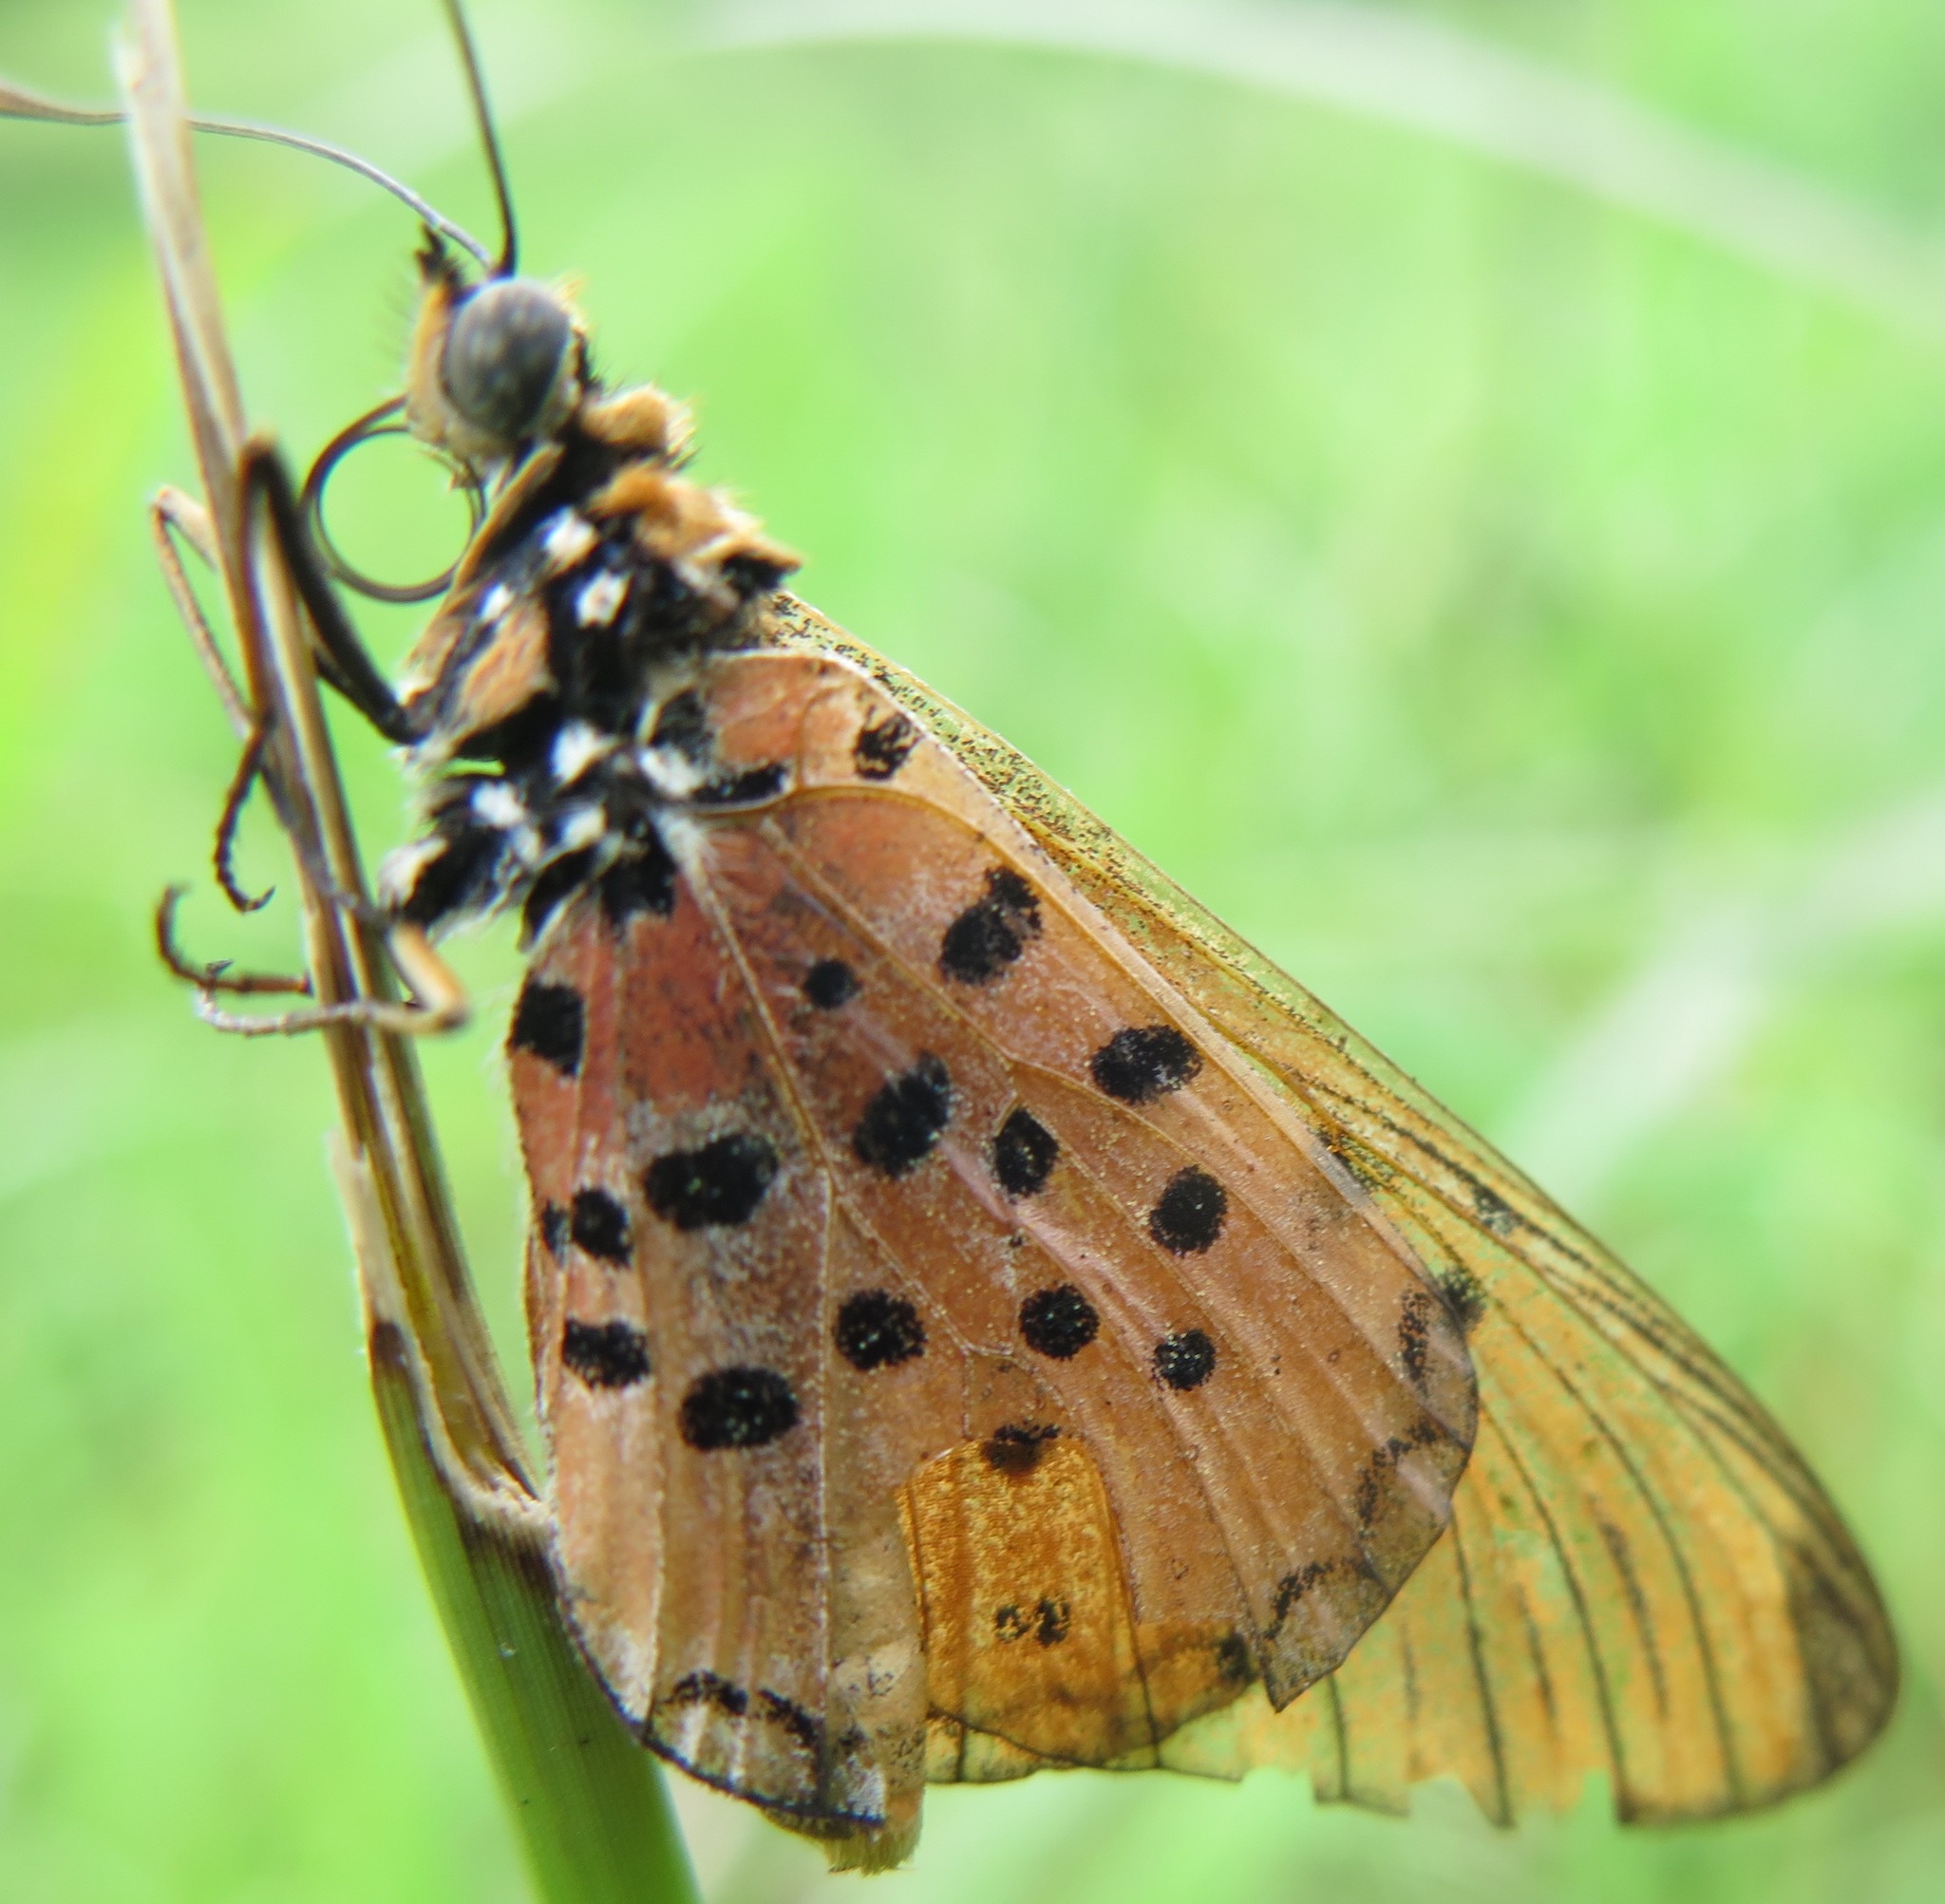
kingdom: Animalia
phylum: Arthropoda
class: Insecta
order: Lepidoptera
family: Nymphalidae
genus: Stephenia
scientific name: Stephenia
